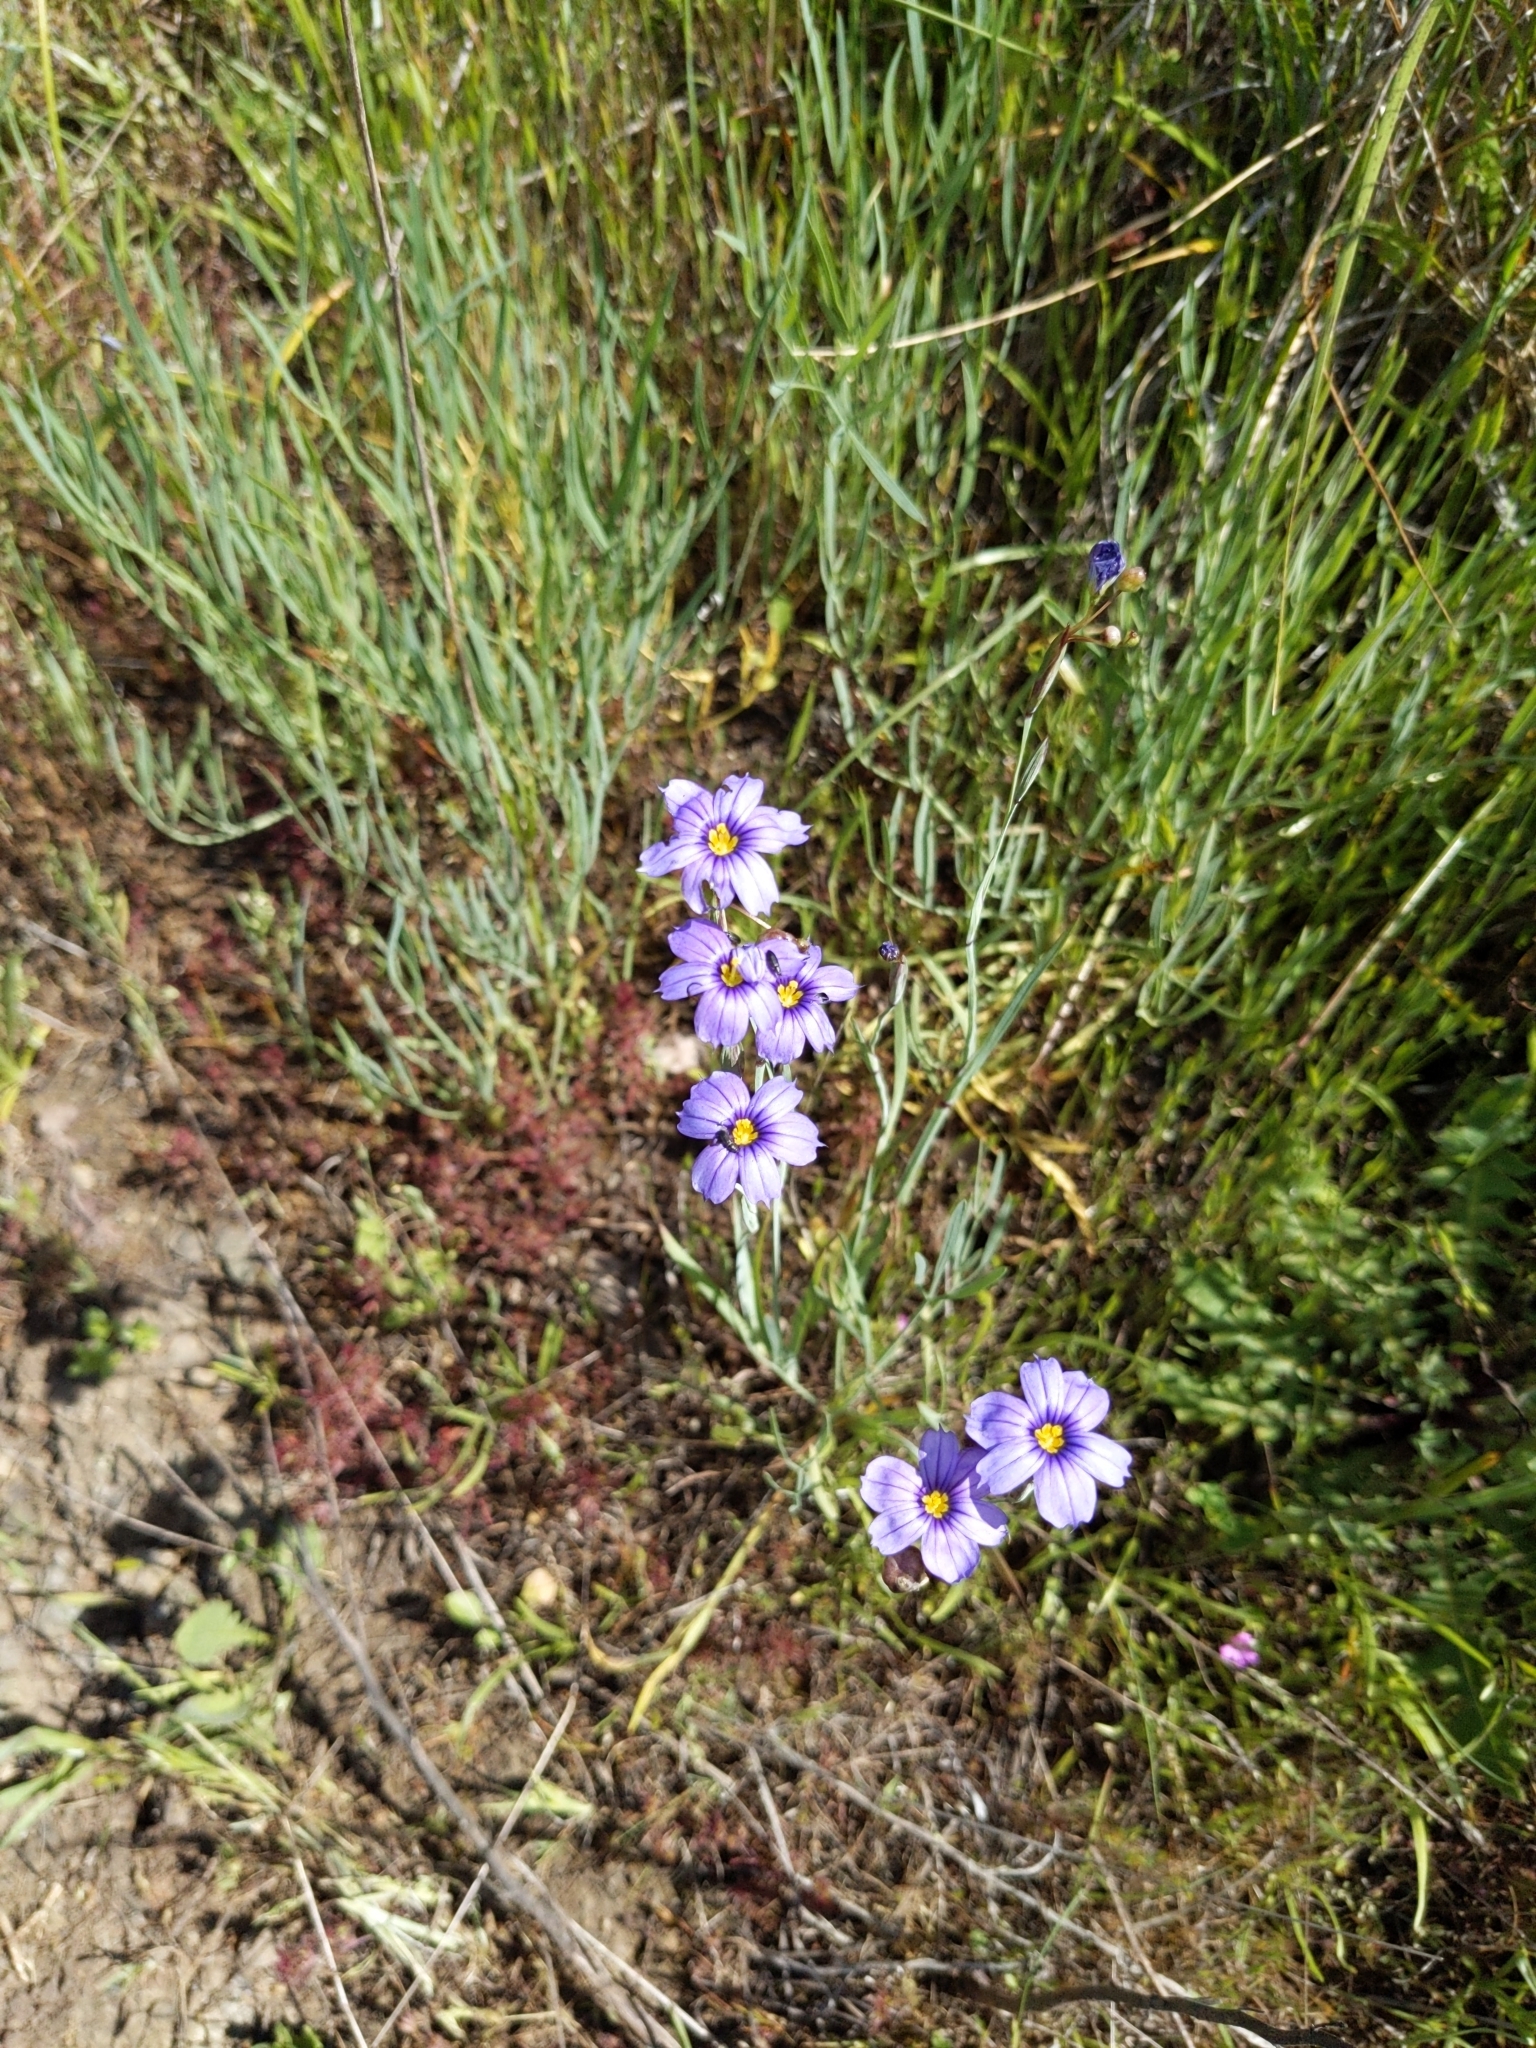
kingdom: Plantae
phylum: Tracheophyta
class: Liliopsida
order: Asparagales
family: Iridaceae
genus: Sisyrinchium
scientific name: Sisyrinchium bellum
